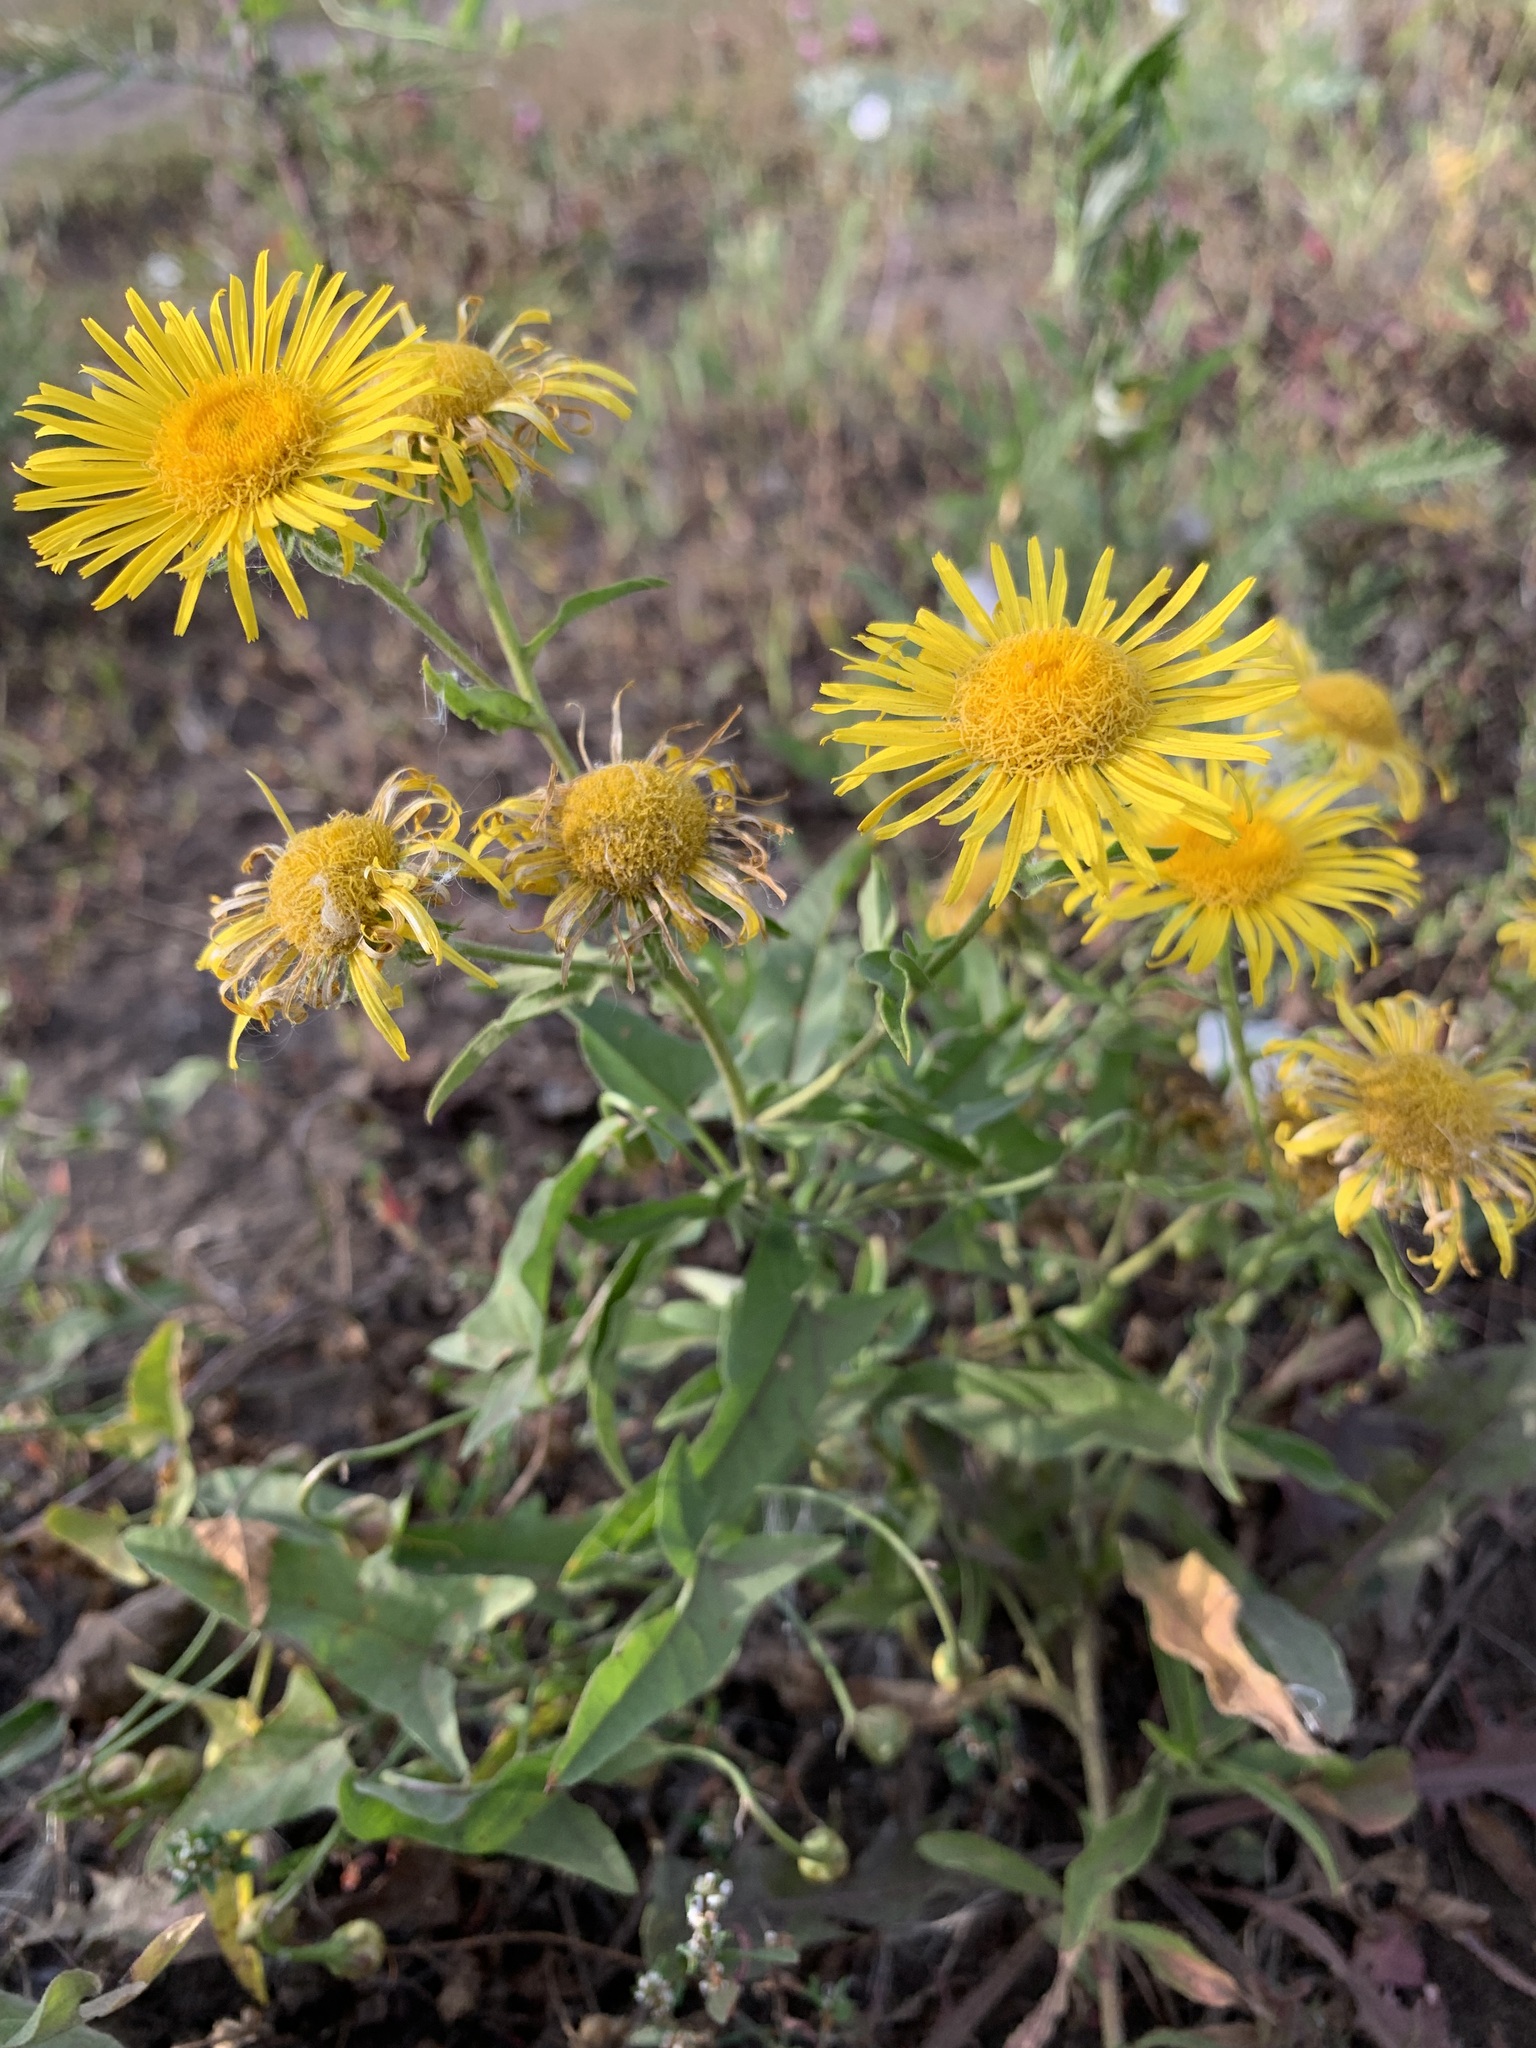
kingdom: Plantae
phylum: Tracheophyta
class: Magnoliopsida
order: Asterales
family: Asteraceae
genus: Pentanema
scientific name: Pentanema britannicum
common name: British elecampane
